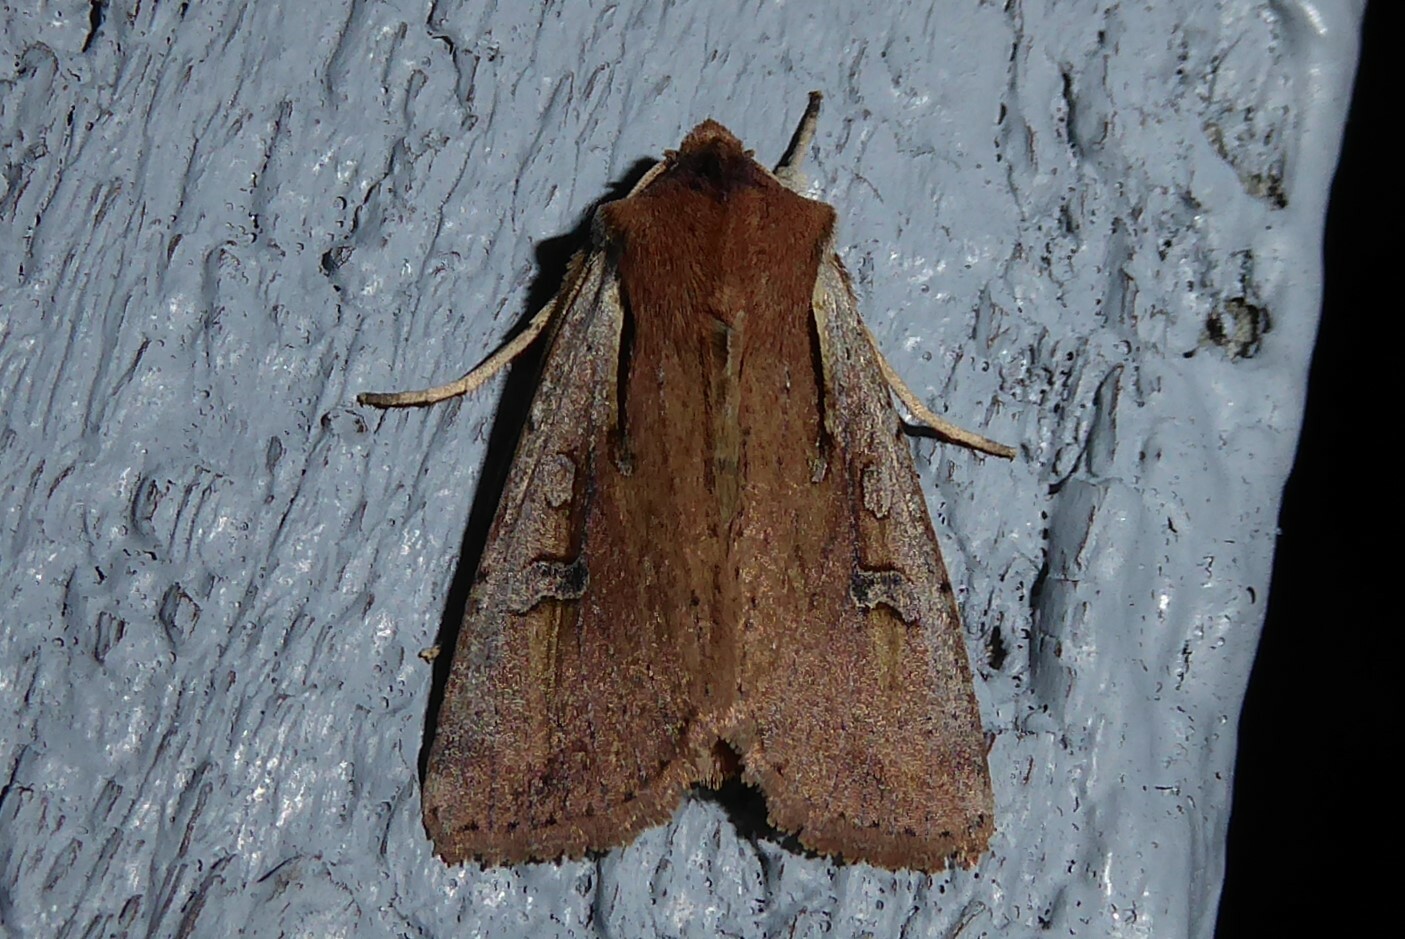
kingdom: Animalia
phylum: Arthropoda
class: Insecta
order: Lepidoptera
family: Noctuidae
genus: Ichneutica
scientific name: Ichneutica atristriga
